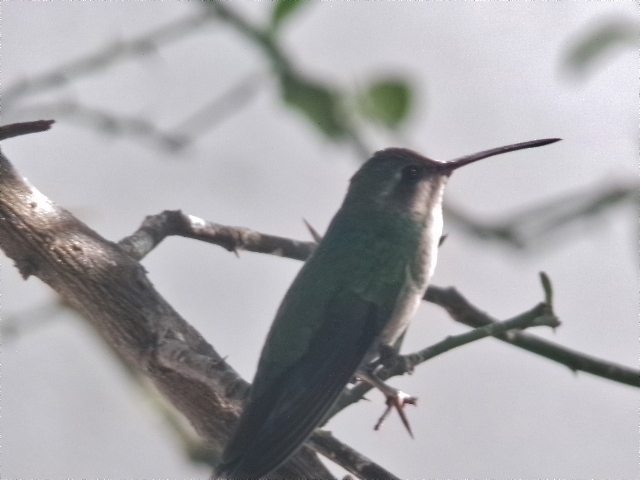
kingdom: Animalia
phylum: Chordata
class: Aves
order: Apodiformes
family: Trochilidae
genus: Cynanthus
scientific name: Cynanthus latirostris
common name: Broad-billed hummingbird
